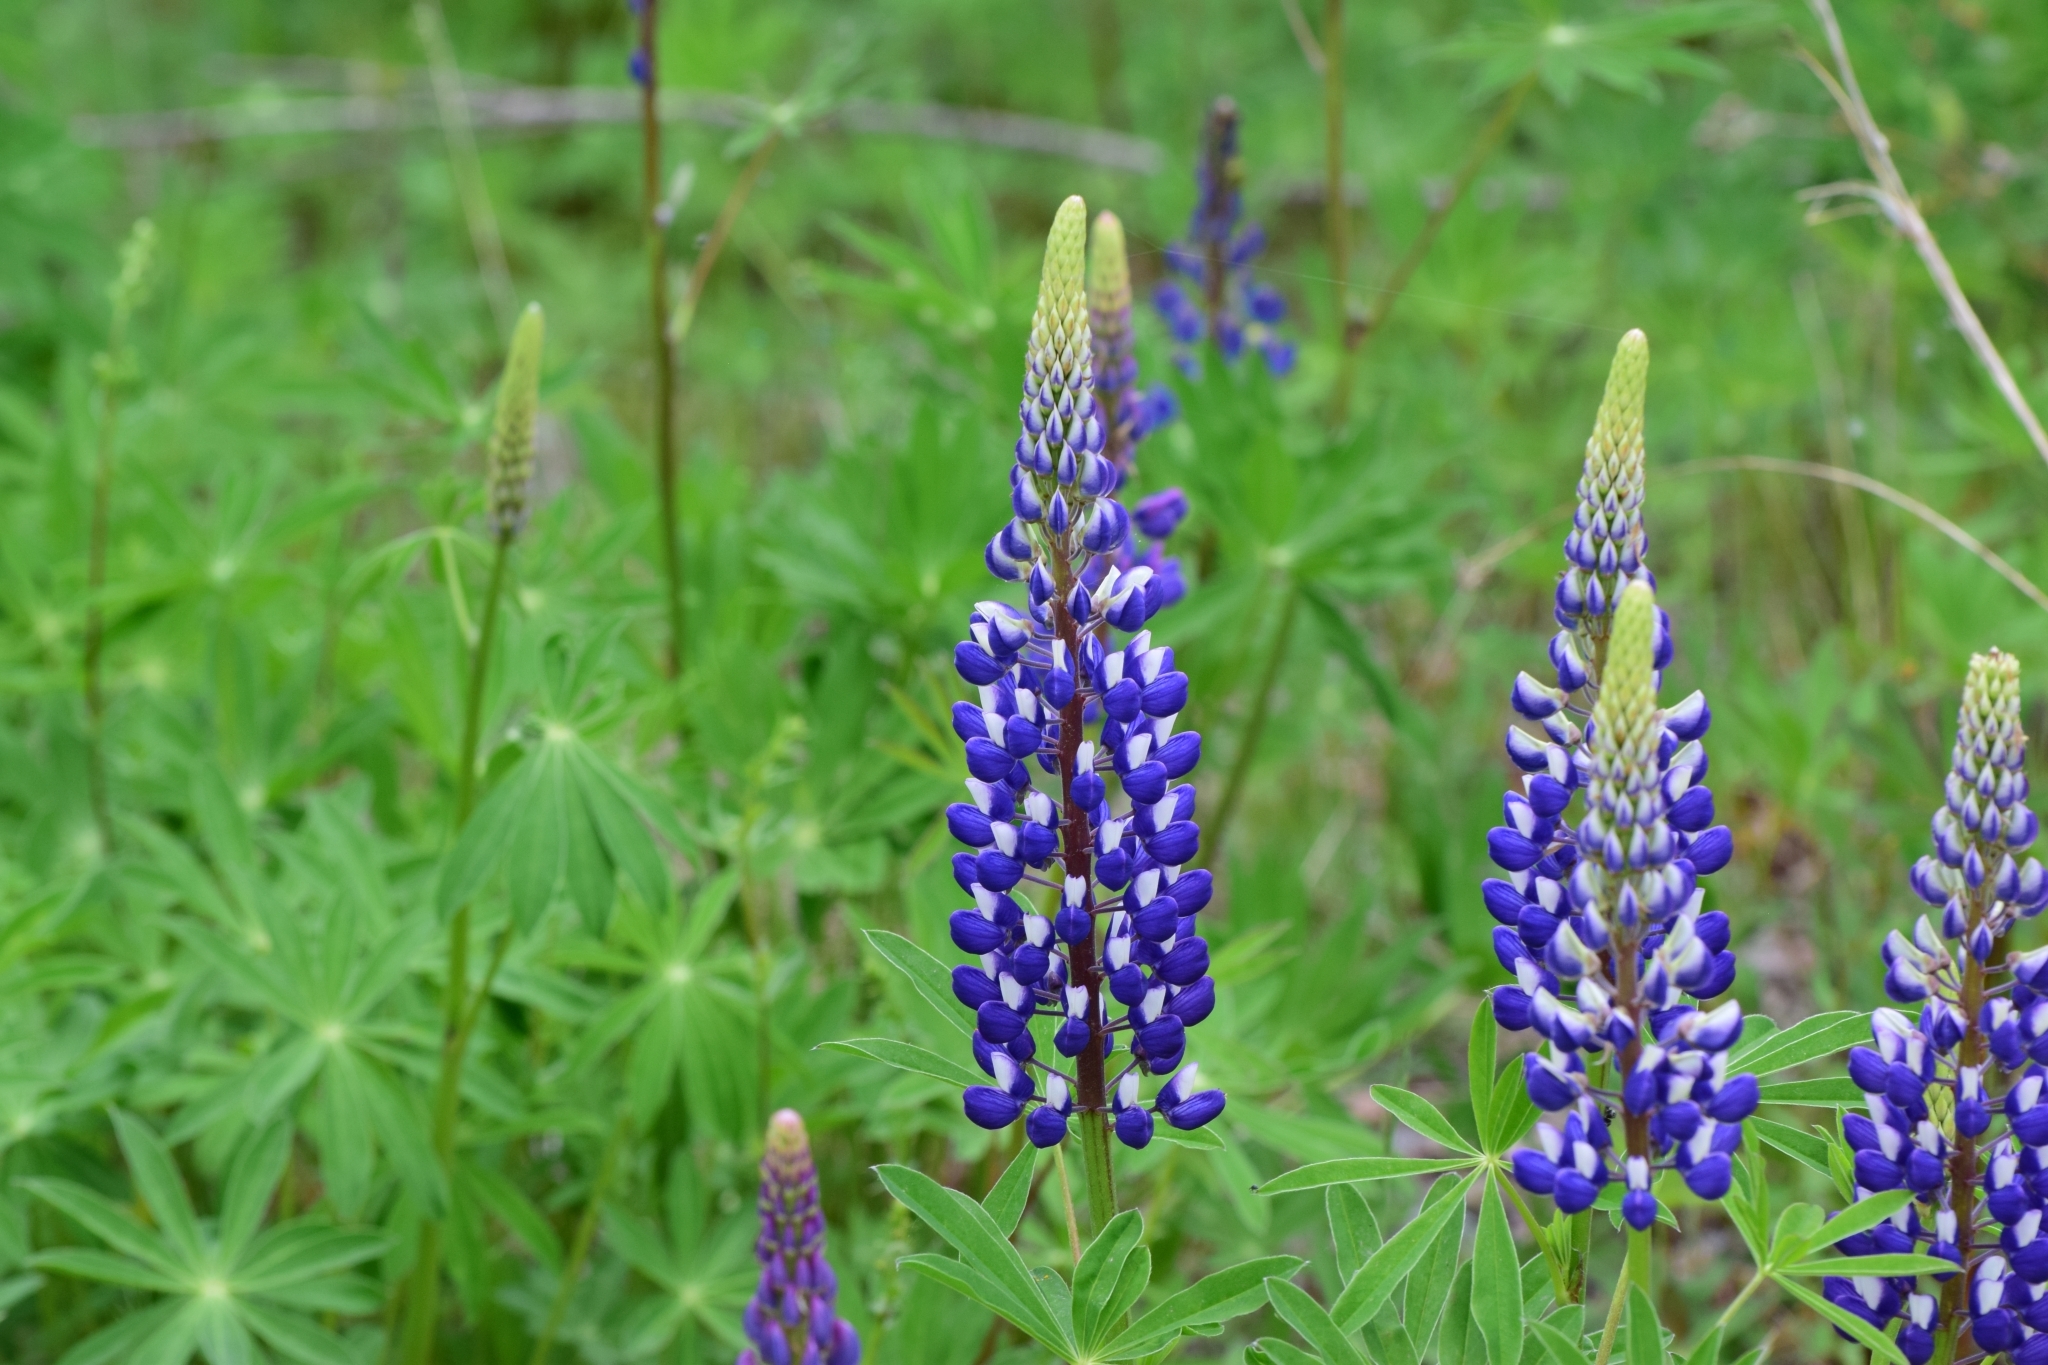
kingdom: Plantae
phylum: Tracheophyta
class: Magnoliopsida
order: Fabales
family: Fabaceae
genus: Lupinus
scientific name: Lupinus polyphyllus
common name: Garden lupin
